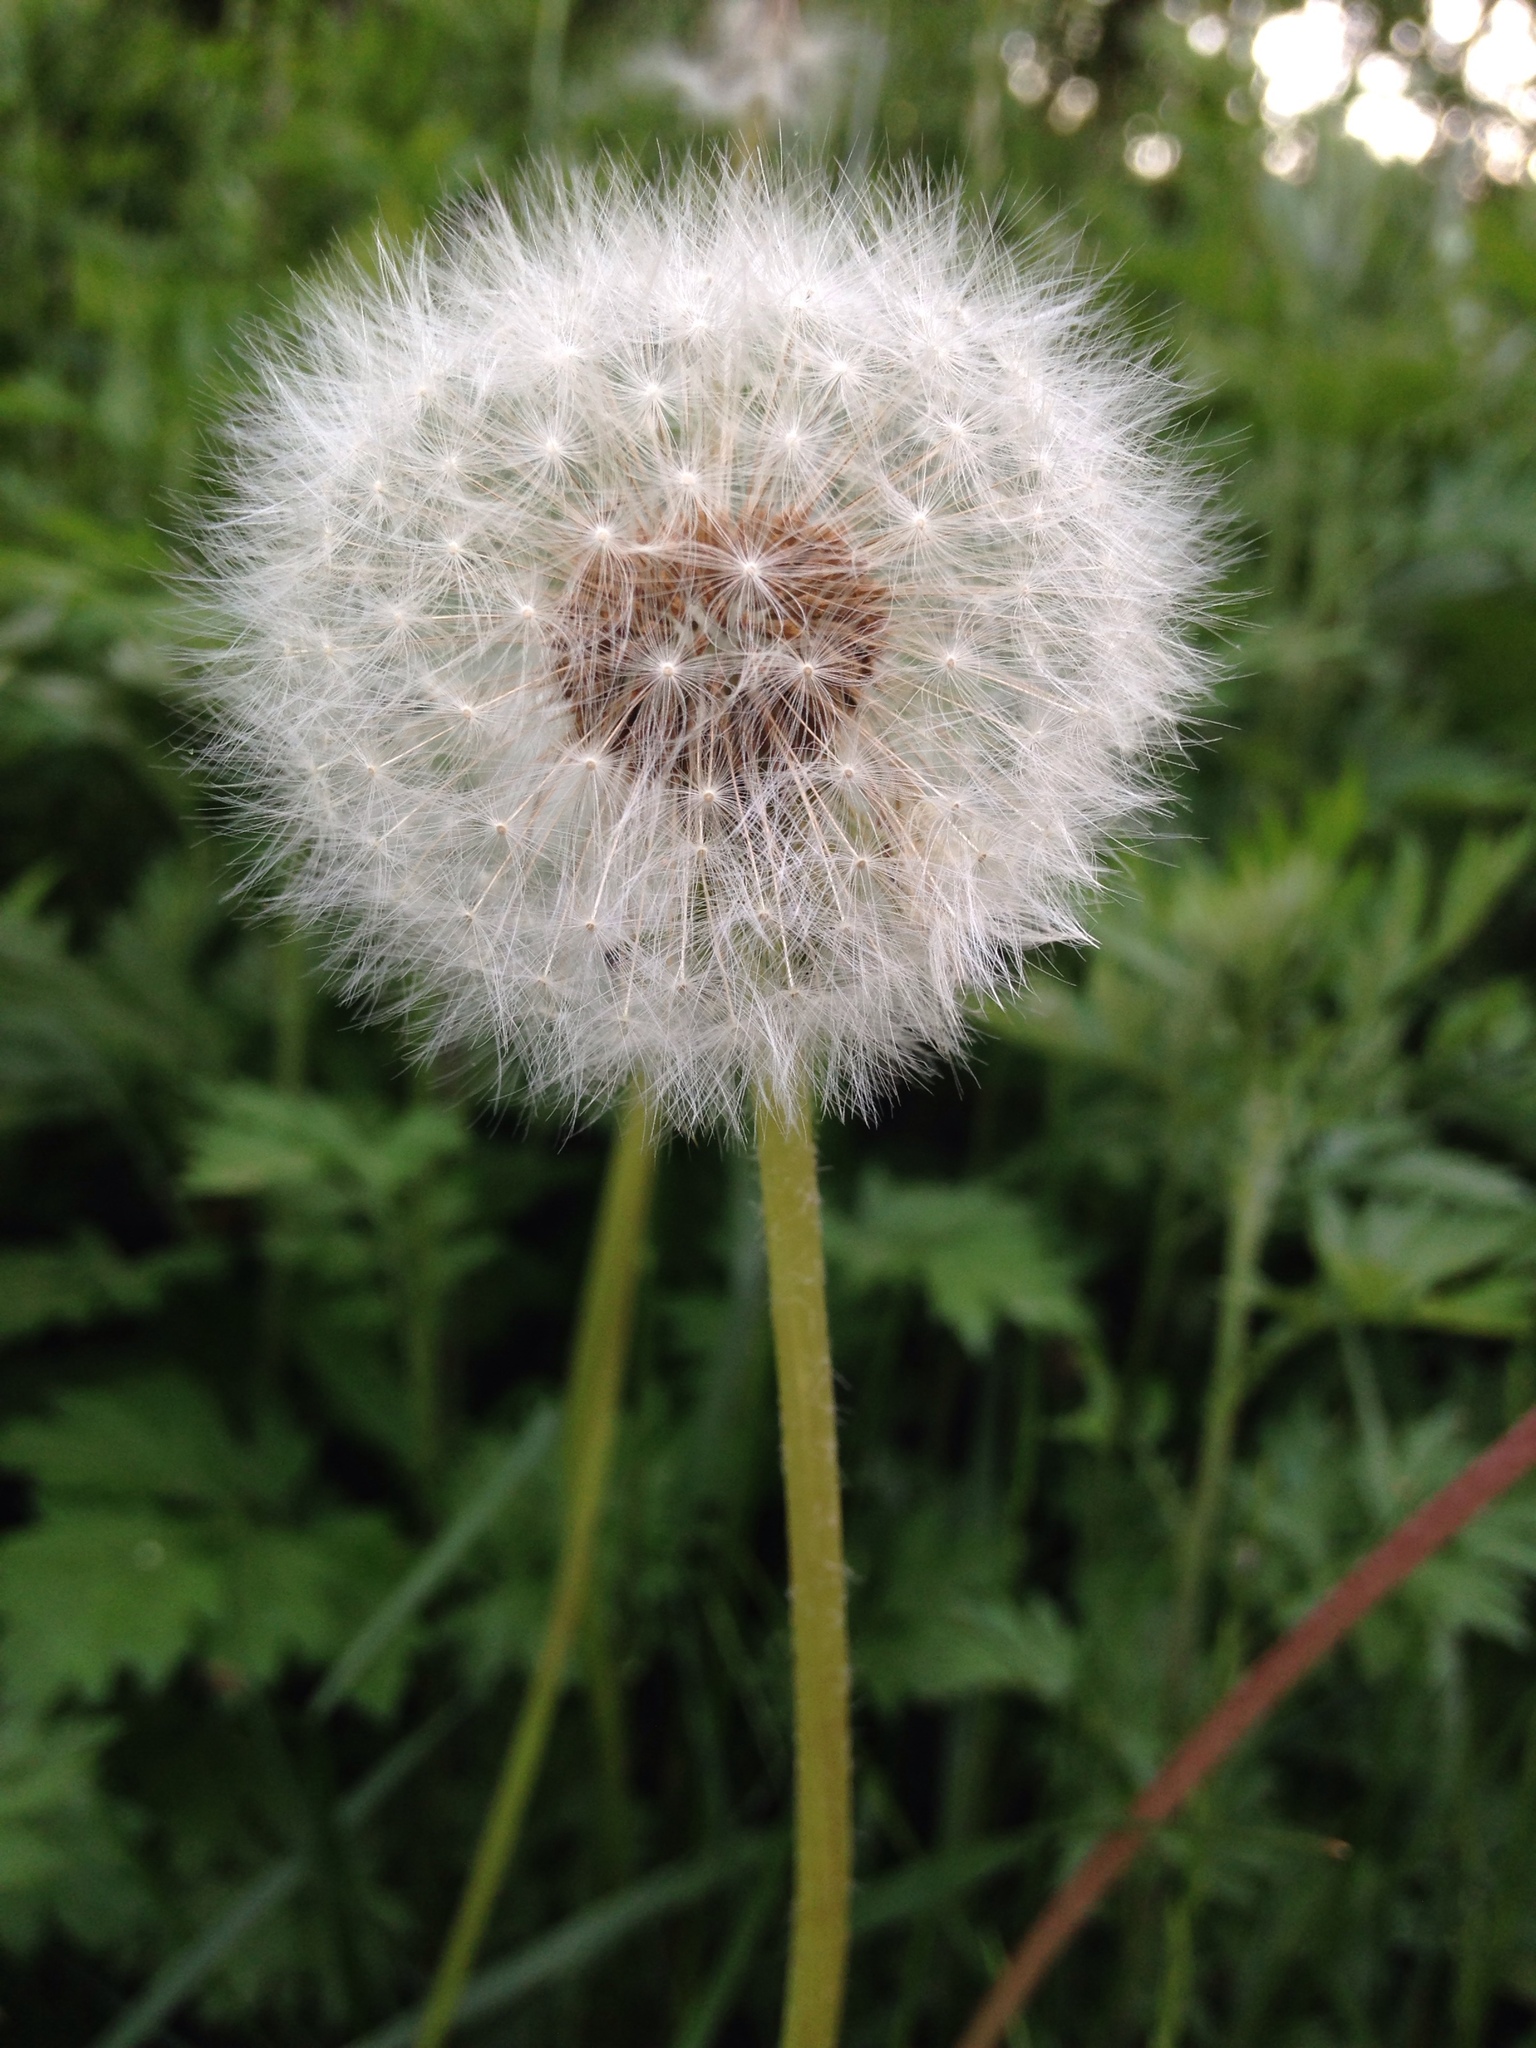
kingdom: Plantae
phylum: Tracheophyta
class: Magnoliopsida
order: Asterales
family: Asteraceae
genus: Taraxacum
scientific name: Taraxacum officinale
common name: Common dandelion
